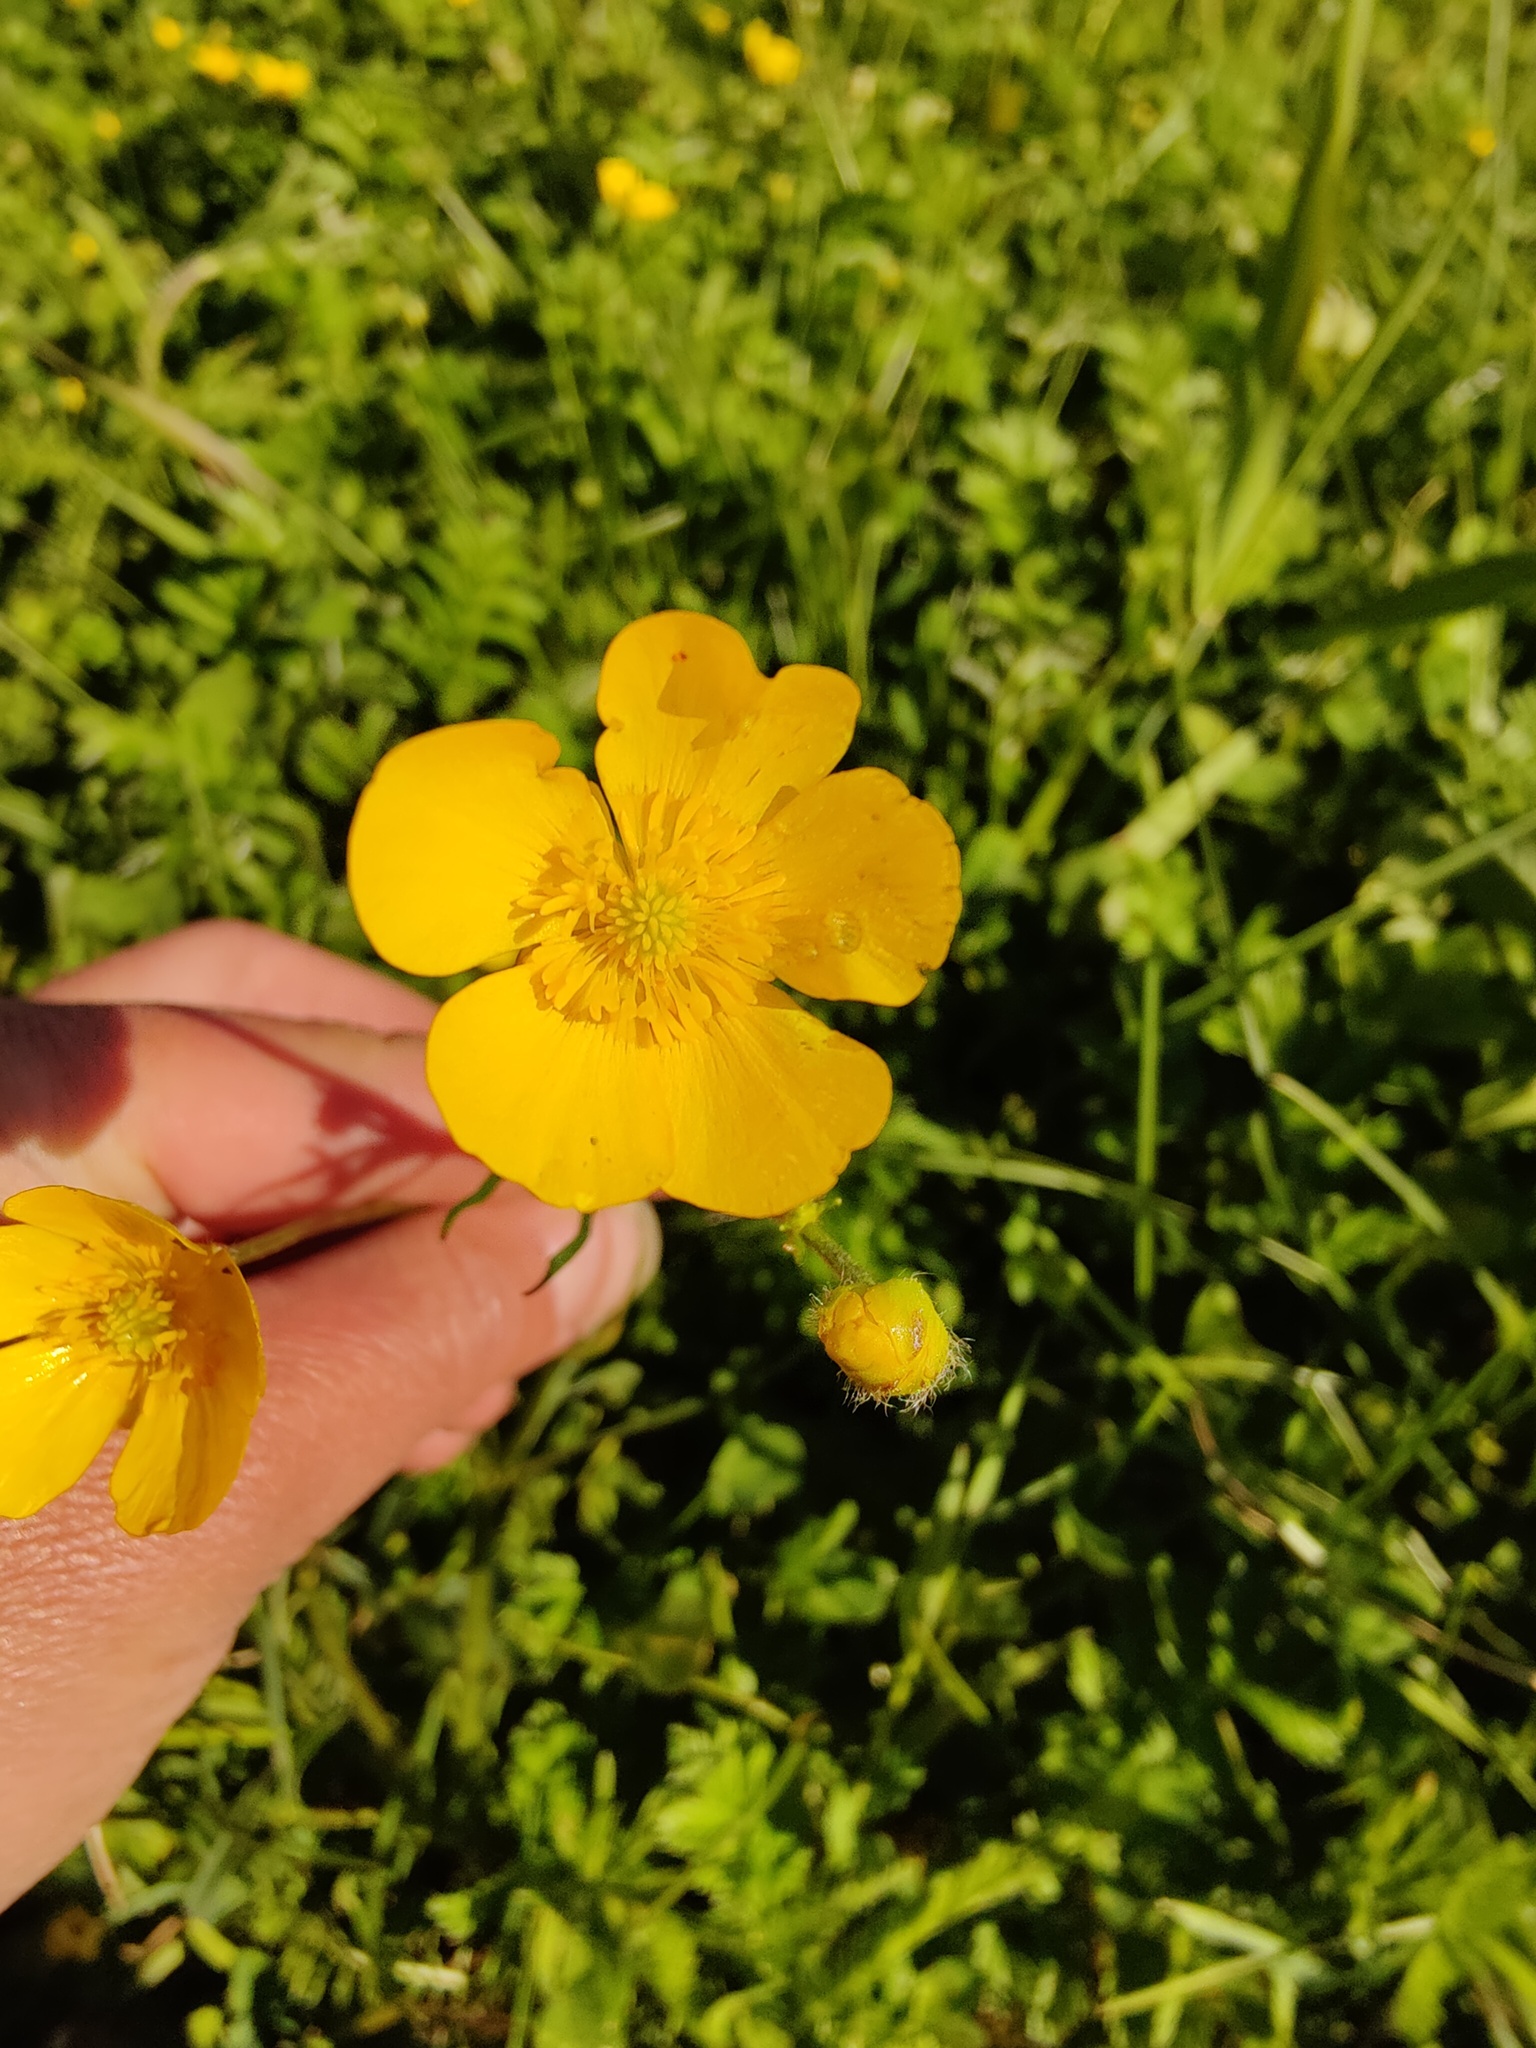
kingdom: Plantae
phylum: Tracheophyta
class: Magnoliopsida
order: Ranunculales
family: Ranunculaceae
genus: Ranunculus
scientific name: Ranunculus polyanthemos
